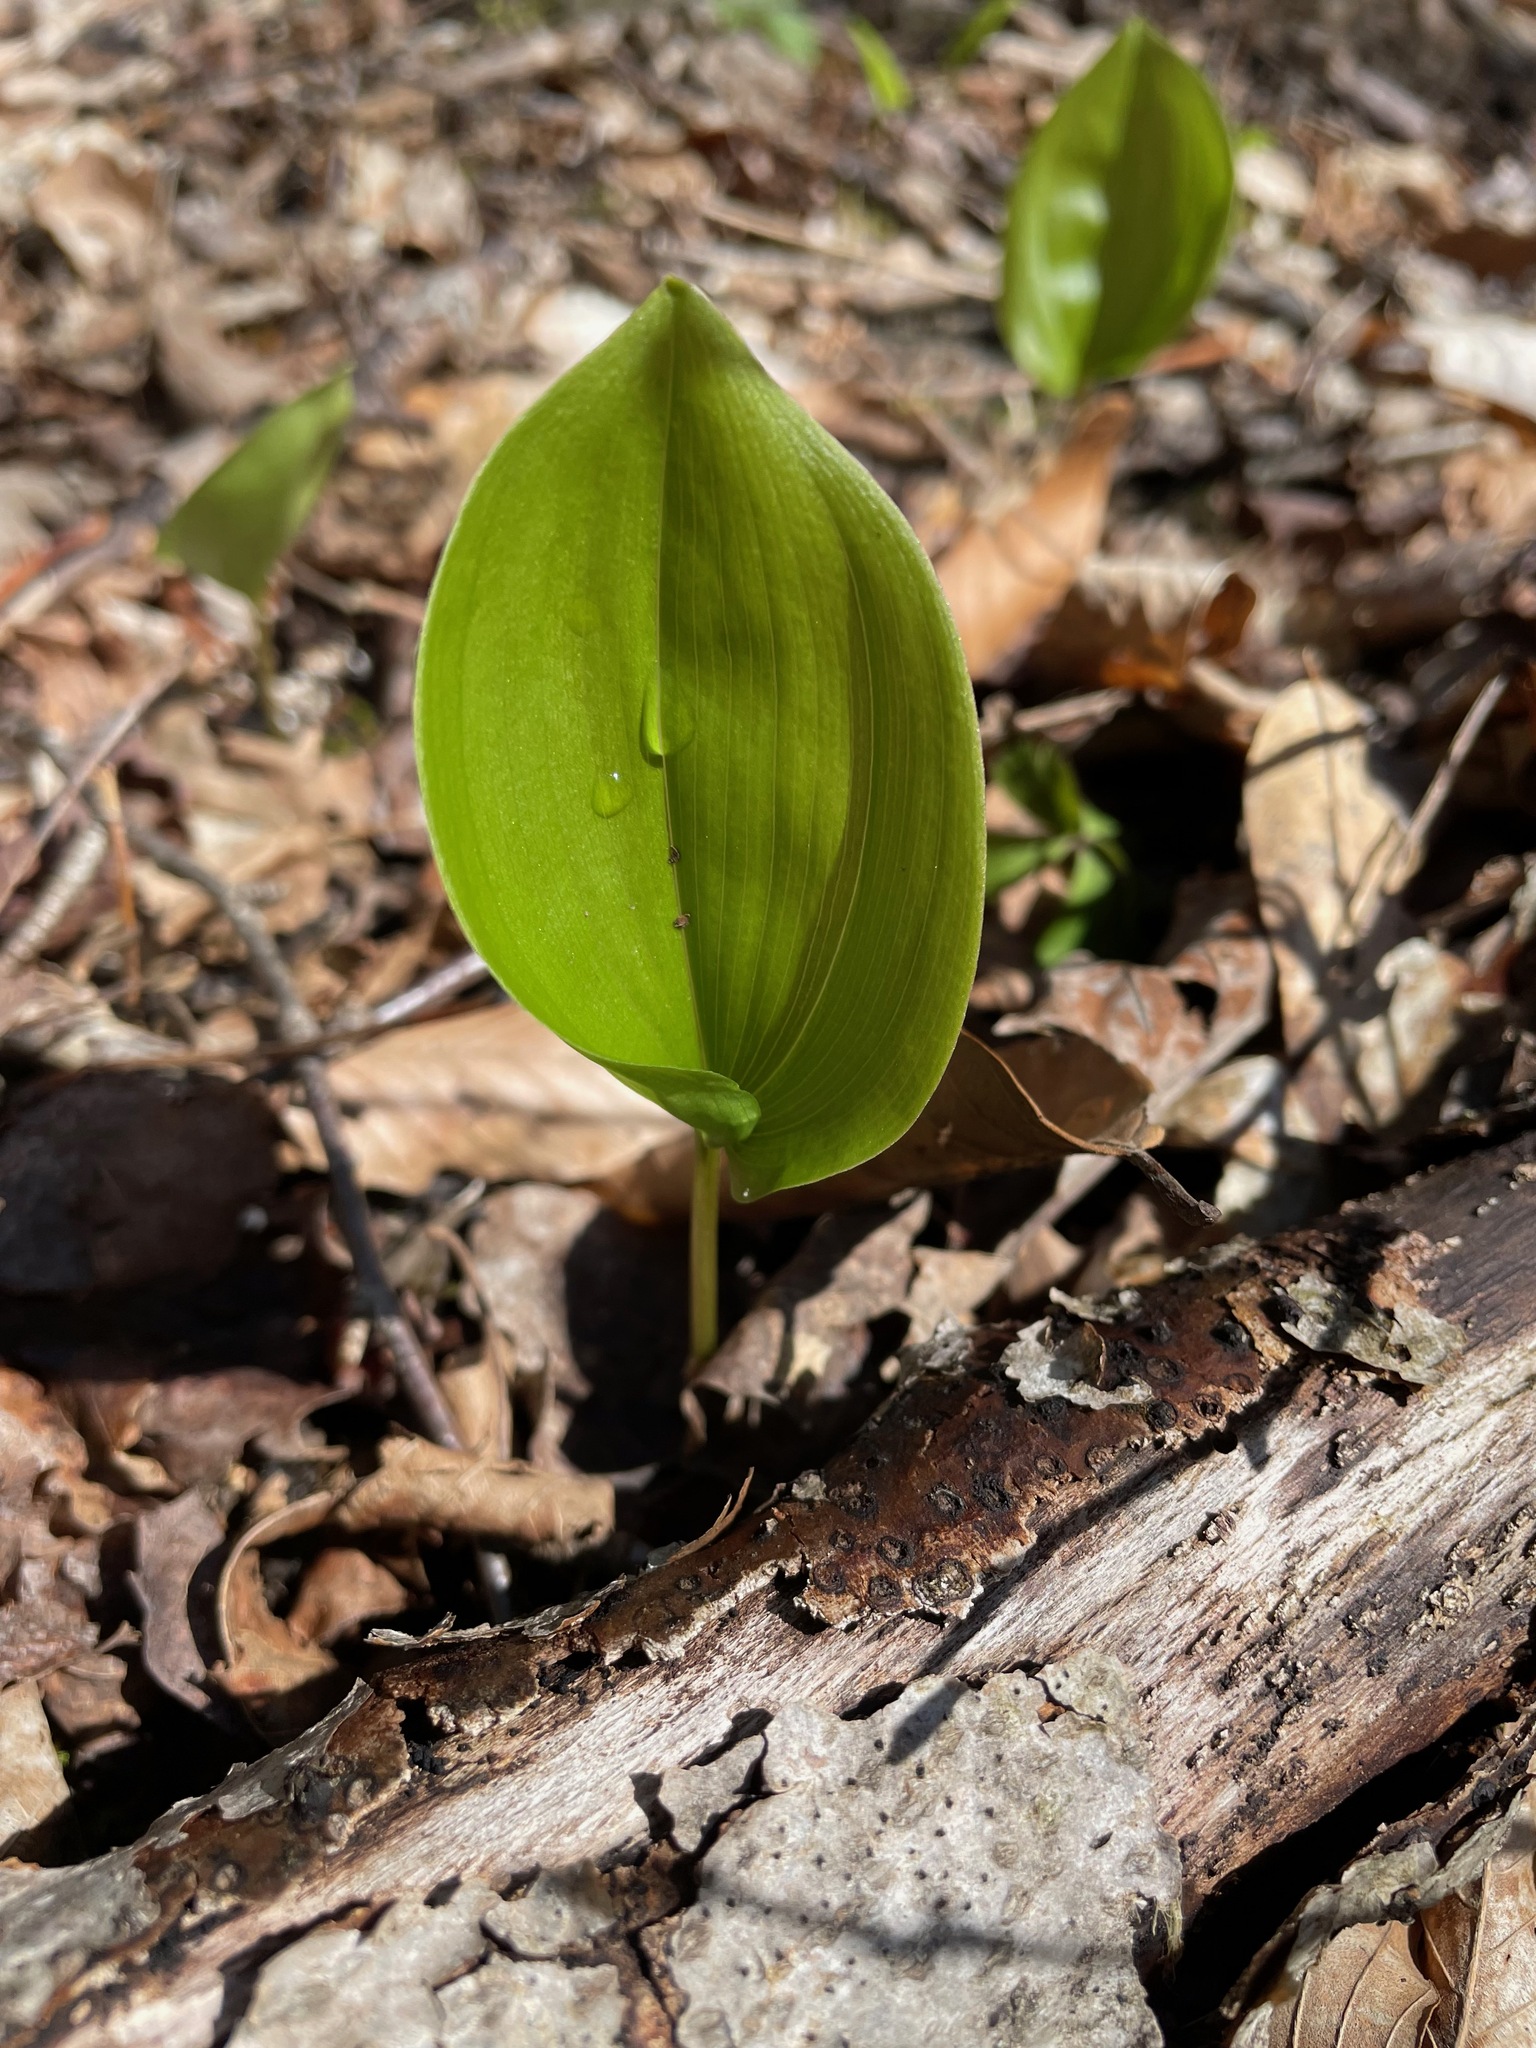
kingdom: Plantae
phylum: Tracheophyta
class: Liliopsida
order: Asparagales
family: Asparagaceae
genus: Maianthemum
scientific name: Maianthemum canadense
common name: False lily-of-the-valley
